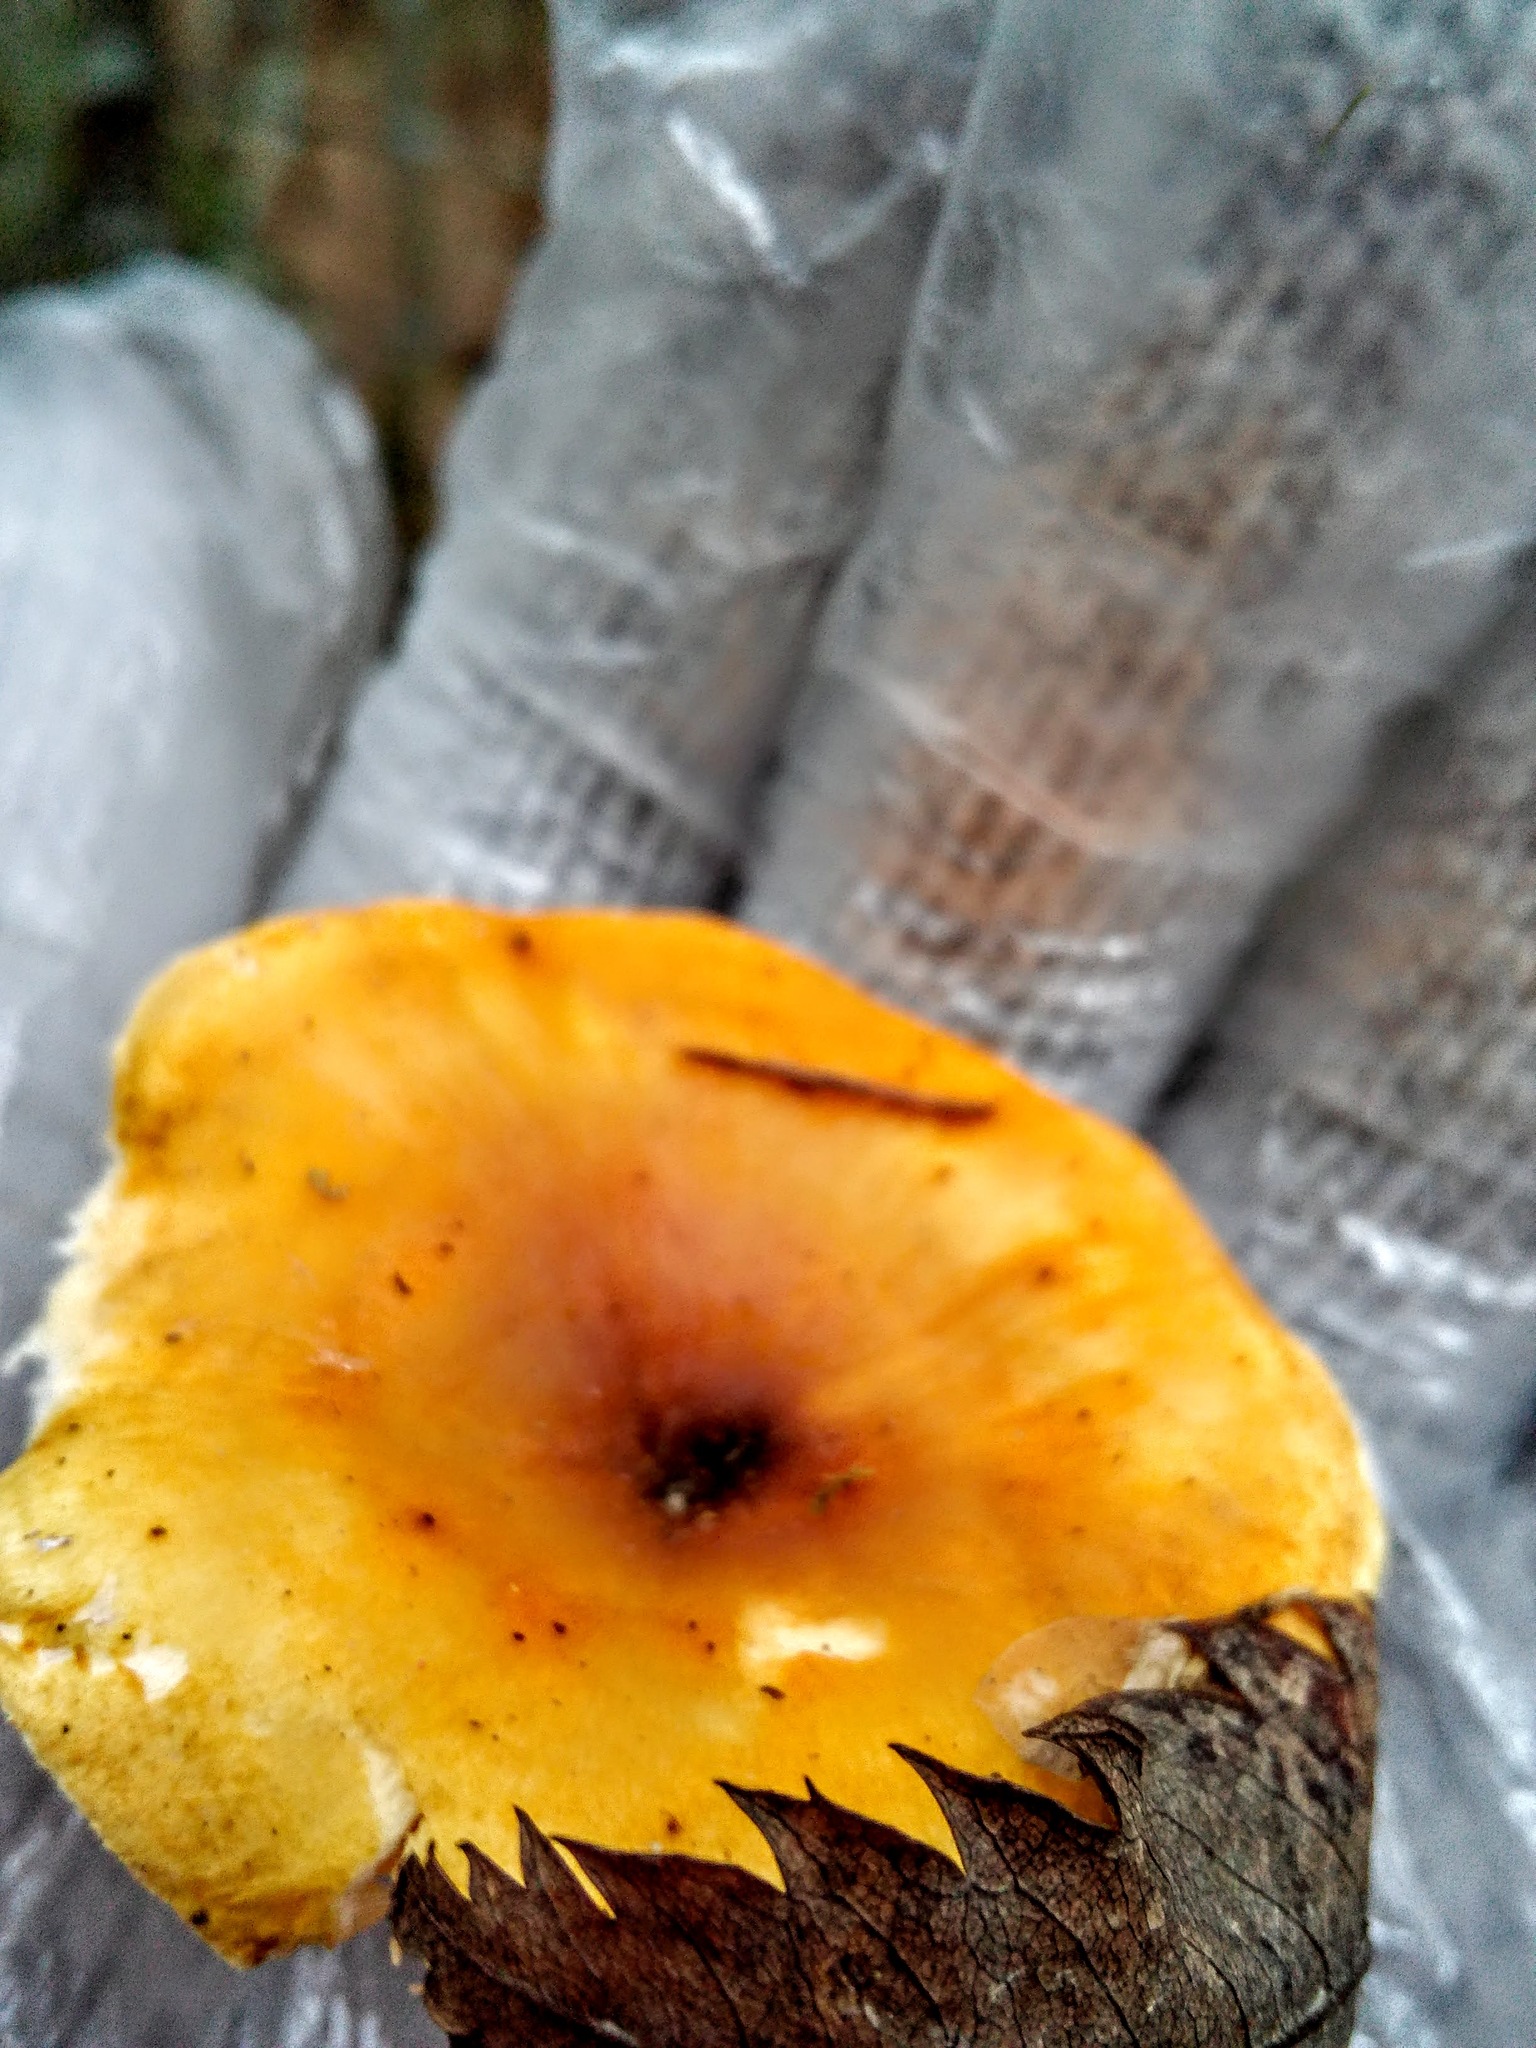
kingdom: Fungi
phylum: Basidiomycota
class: Agaricomycetes
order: Boletales
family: Hygrophoropsidaceae
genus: Hygrophoropsis
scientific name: Hygrophoropsis aurantiaca
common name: False chanterelle
